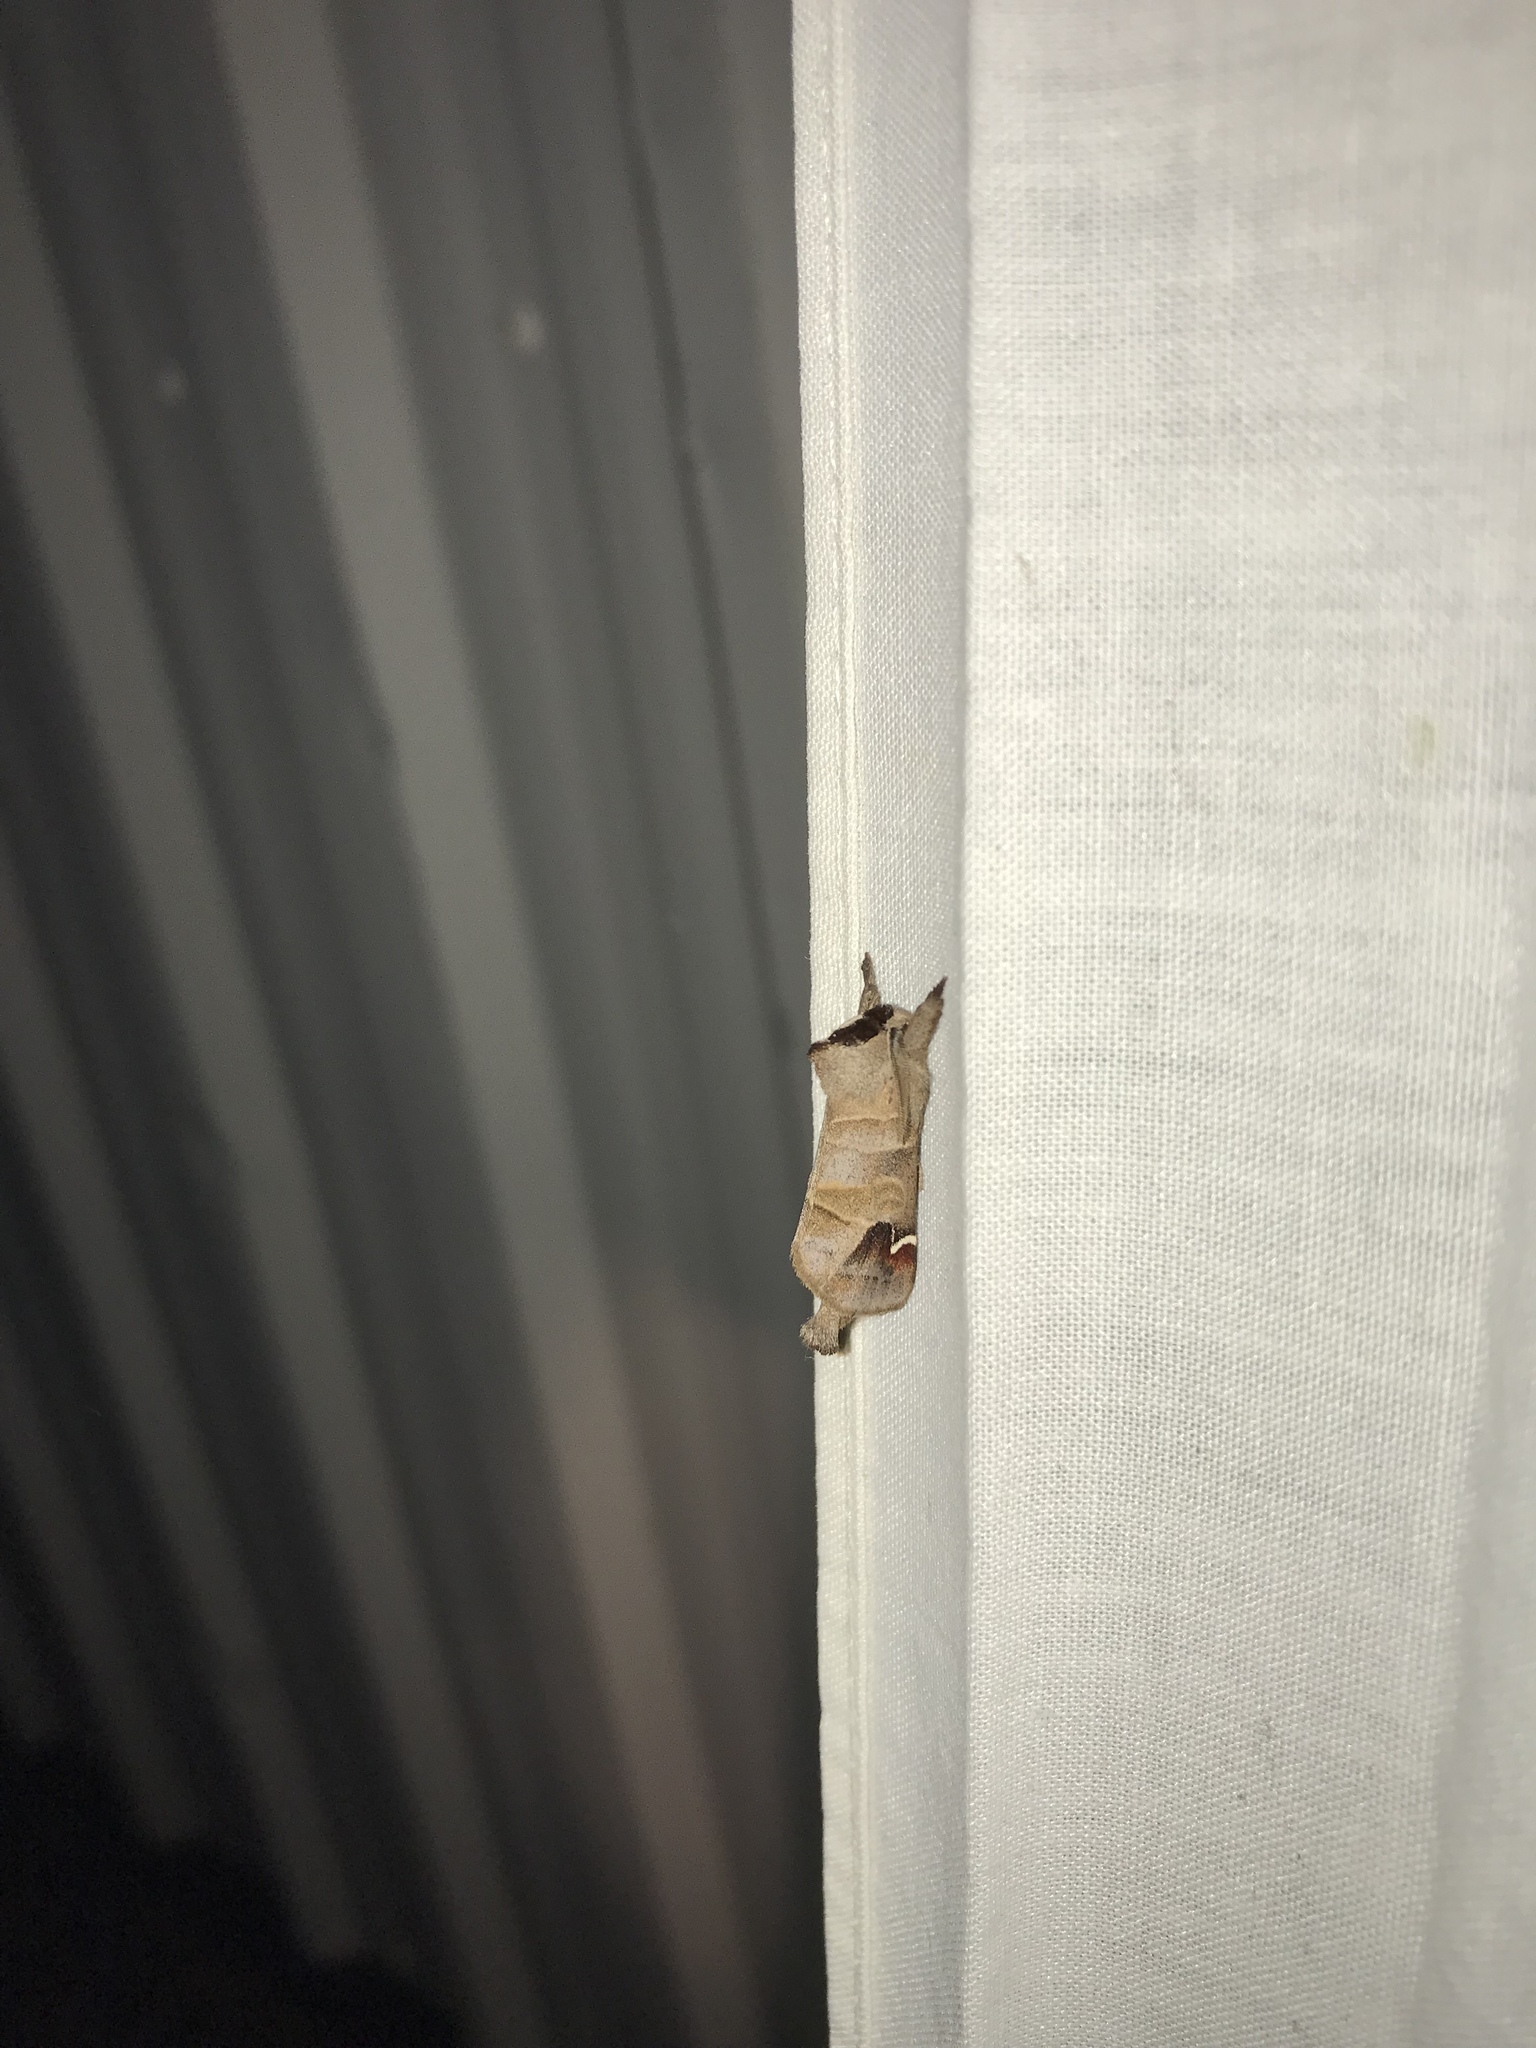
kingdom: Animalia
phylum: Arthropoda
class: Insecta
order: Lepidoptera
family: Notodontidae
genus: Clostera
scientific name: Clostera albosigma
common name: Sigmoid prominent
